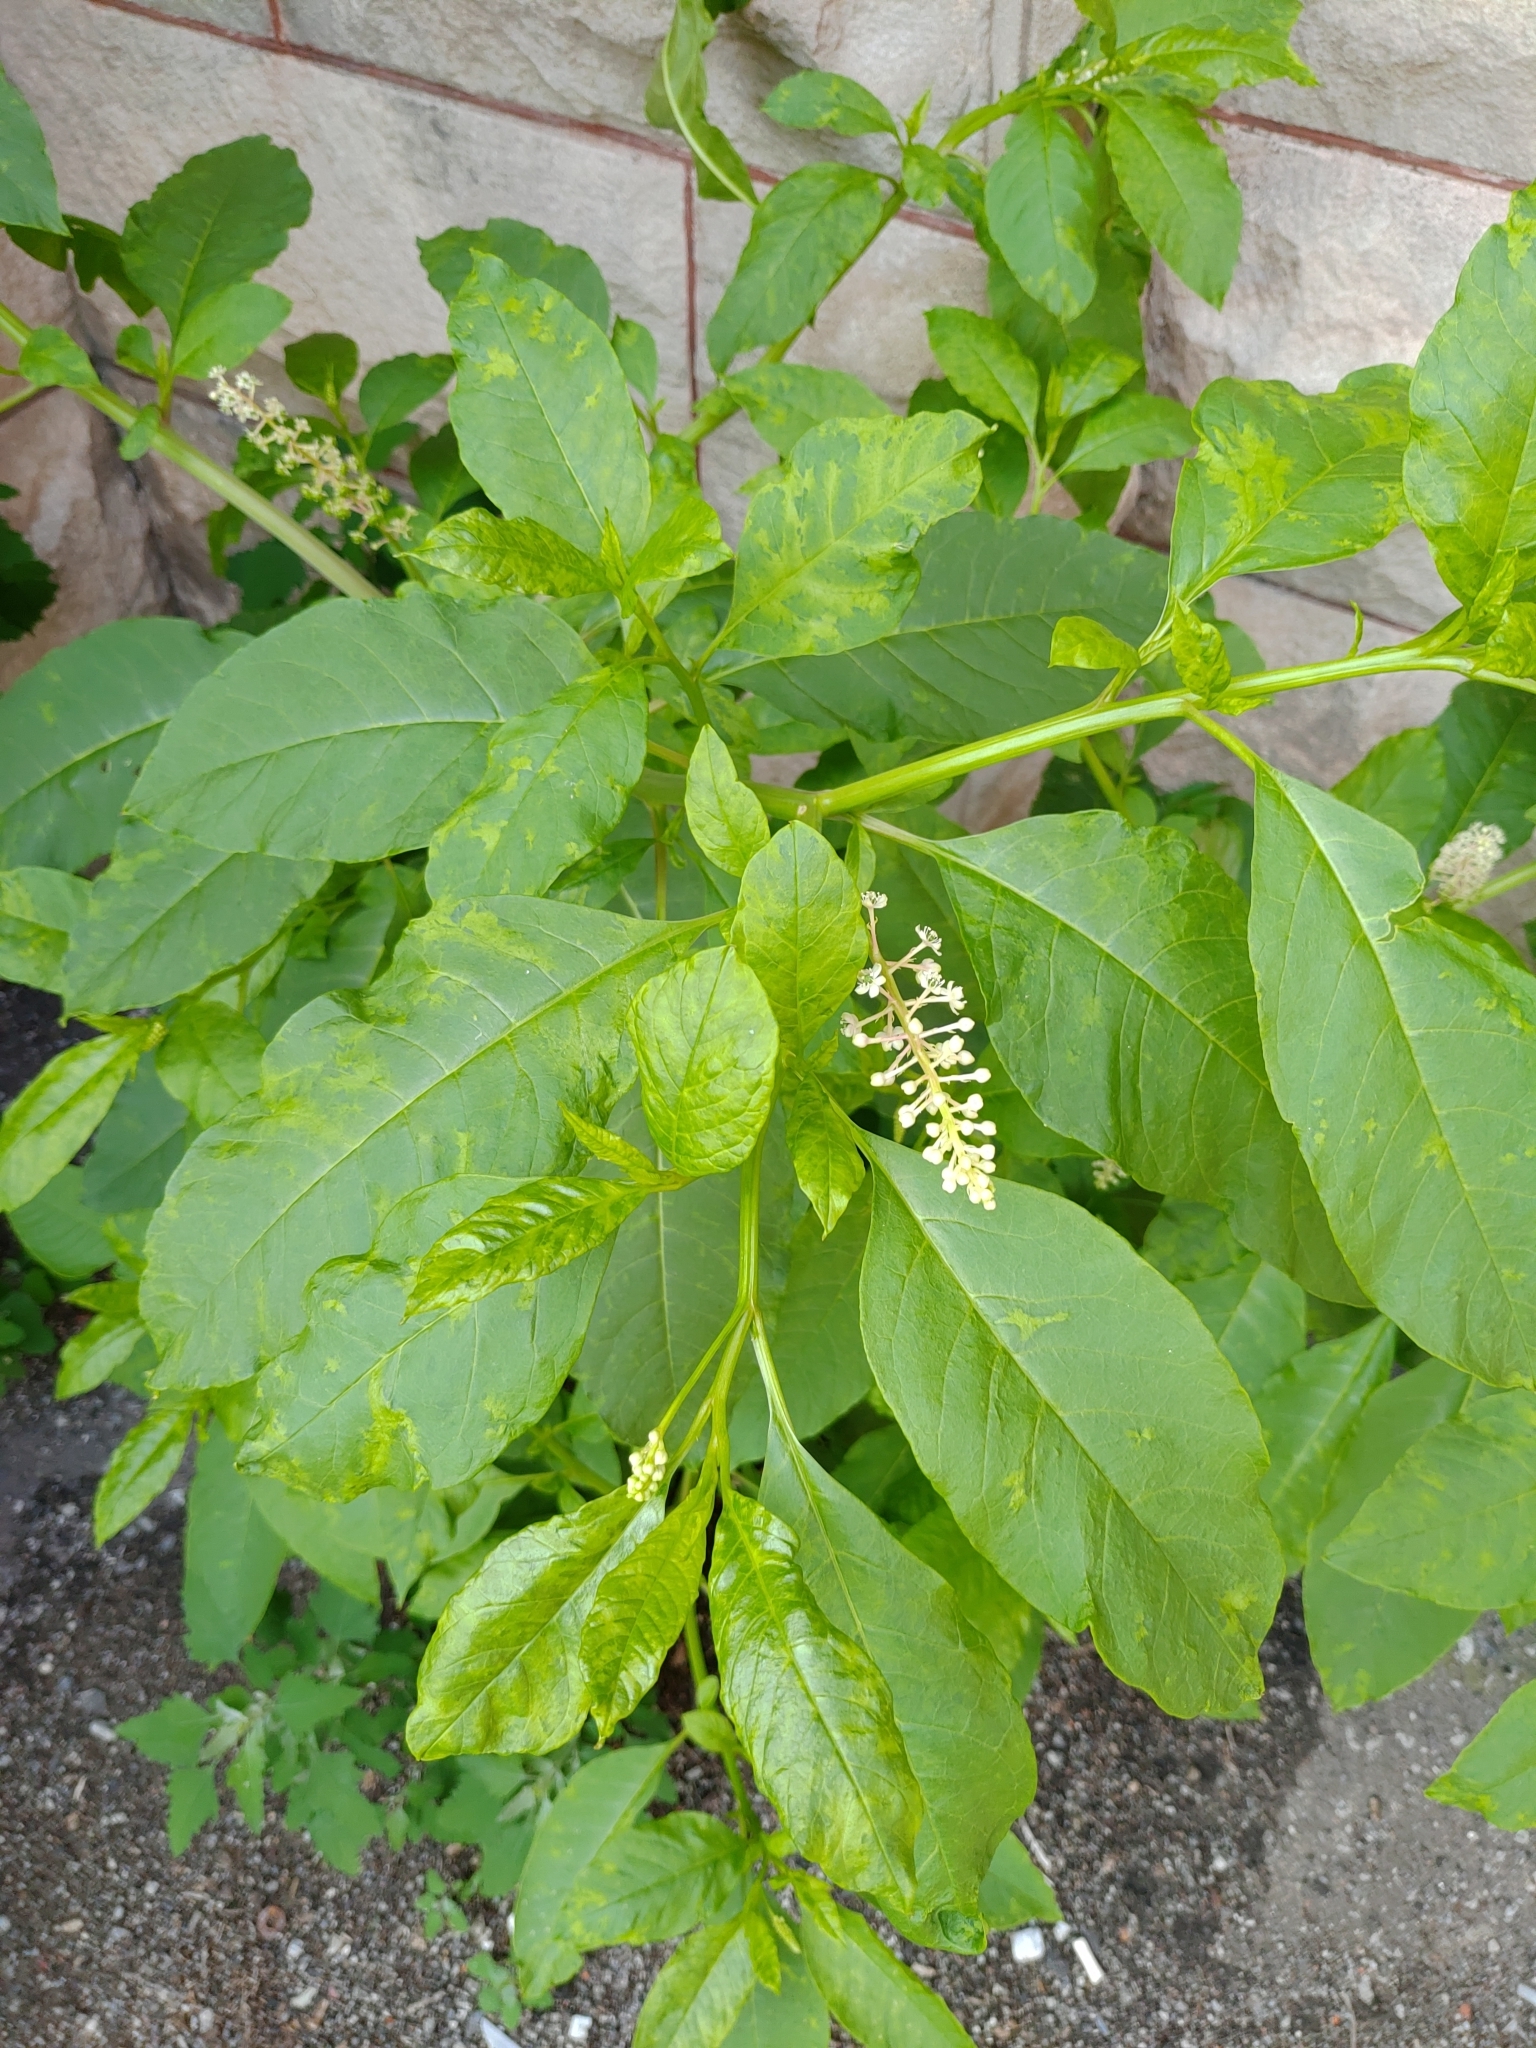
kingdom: Plantae
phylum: Tracheophyta
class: Magnoliopsida
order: Caryophyllales
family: Phytolaccaceae
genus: Phytolacca
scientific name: Phytolacca americana
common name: American pokeweed
